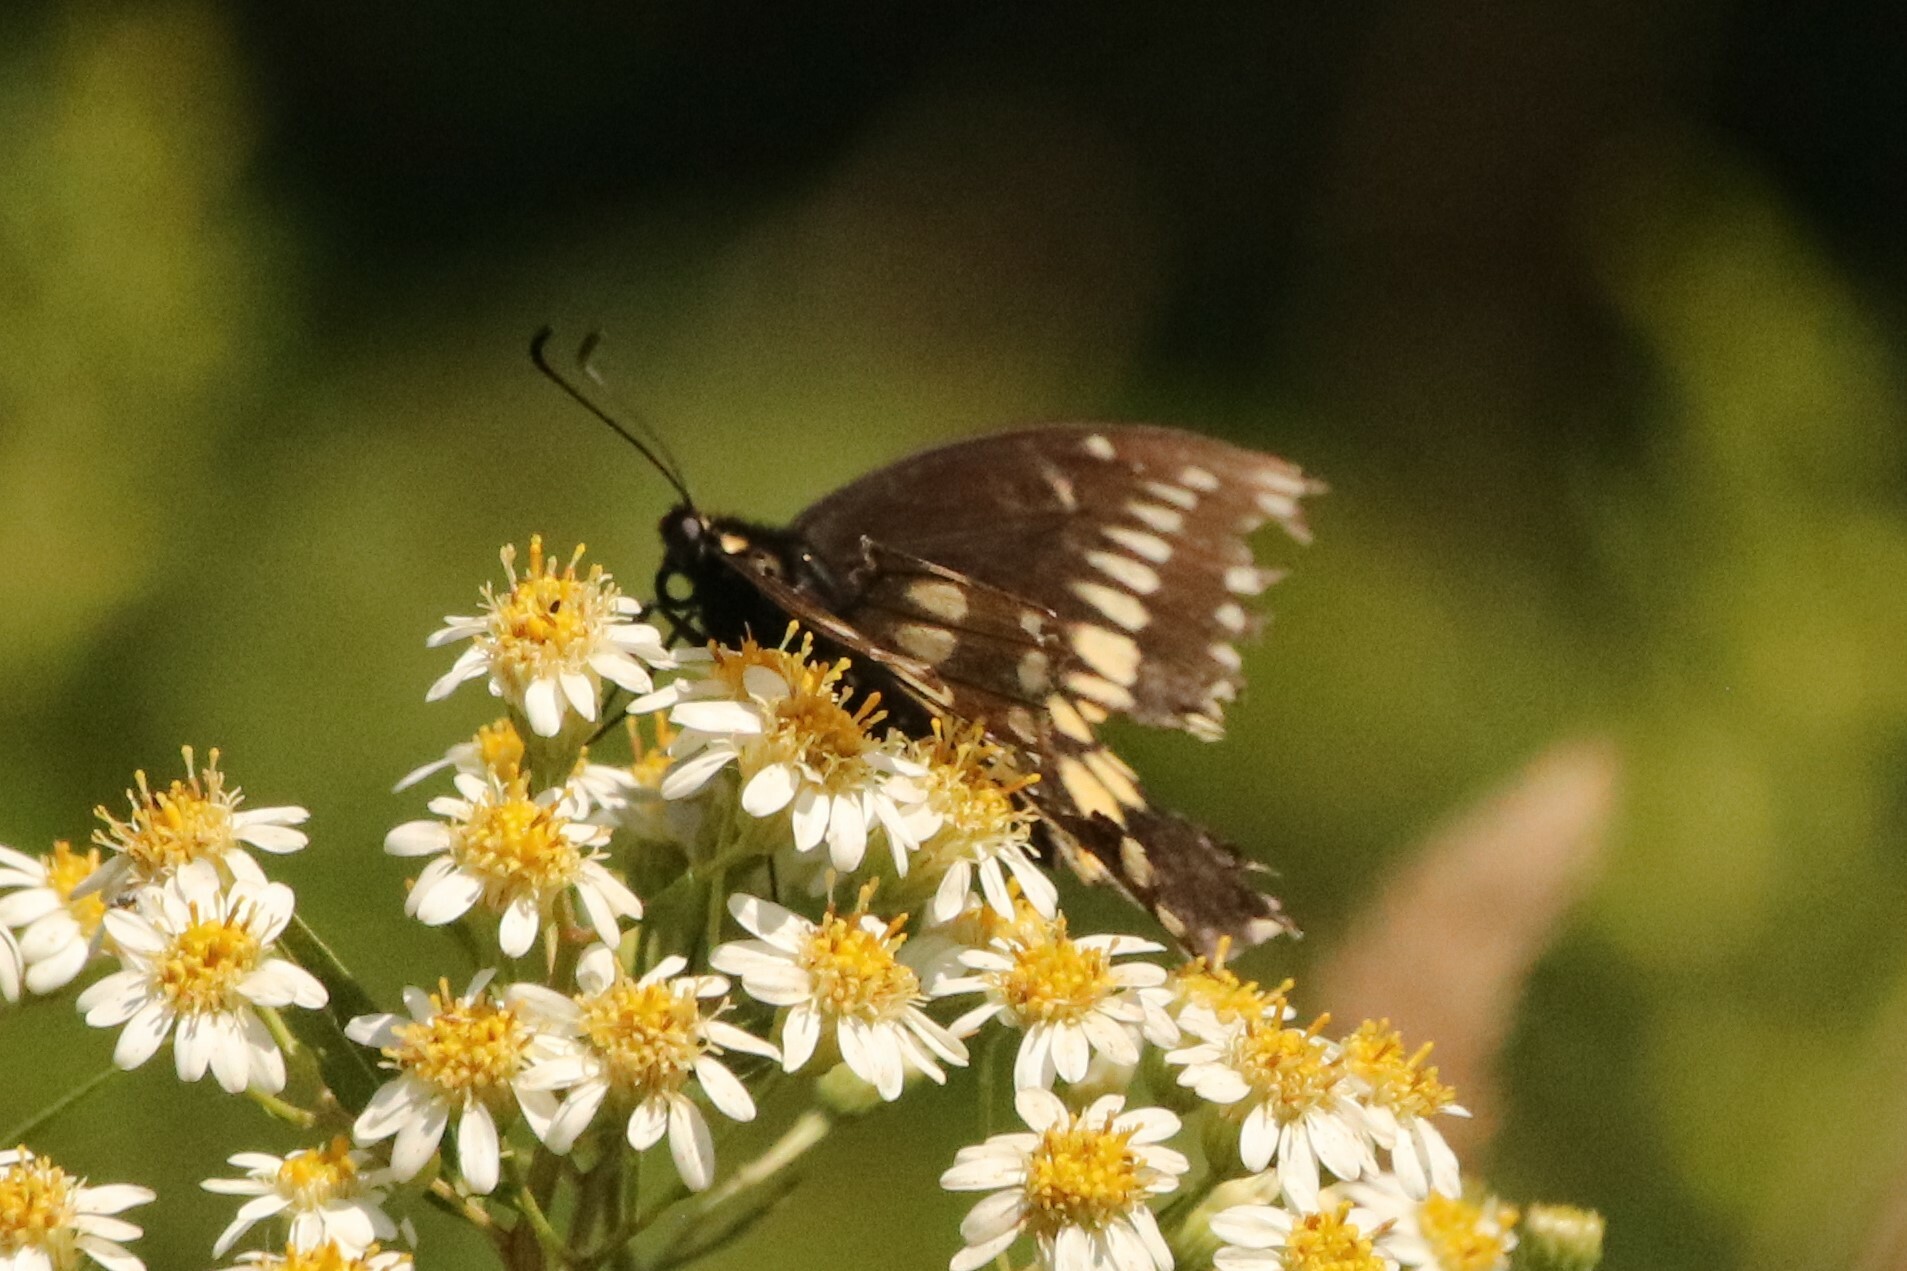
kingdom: Animalia
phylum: Arthropoda
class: Insecta
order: Lepidoptera
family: Papilionidae
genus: Papilio
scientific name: Papilio polyxenes
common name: Black swallowtail
